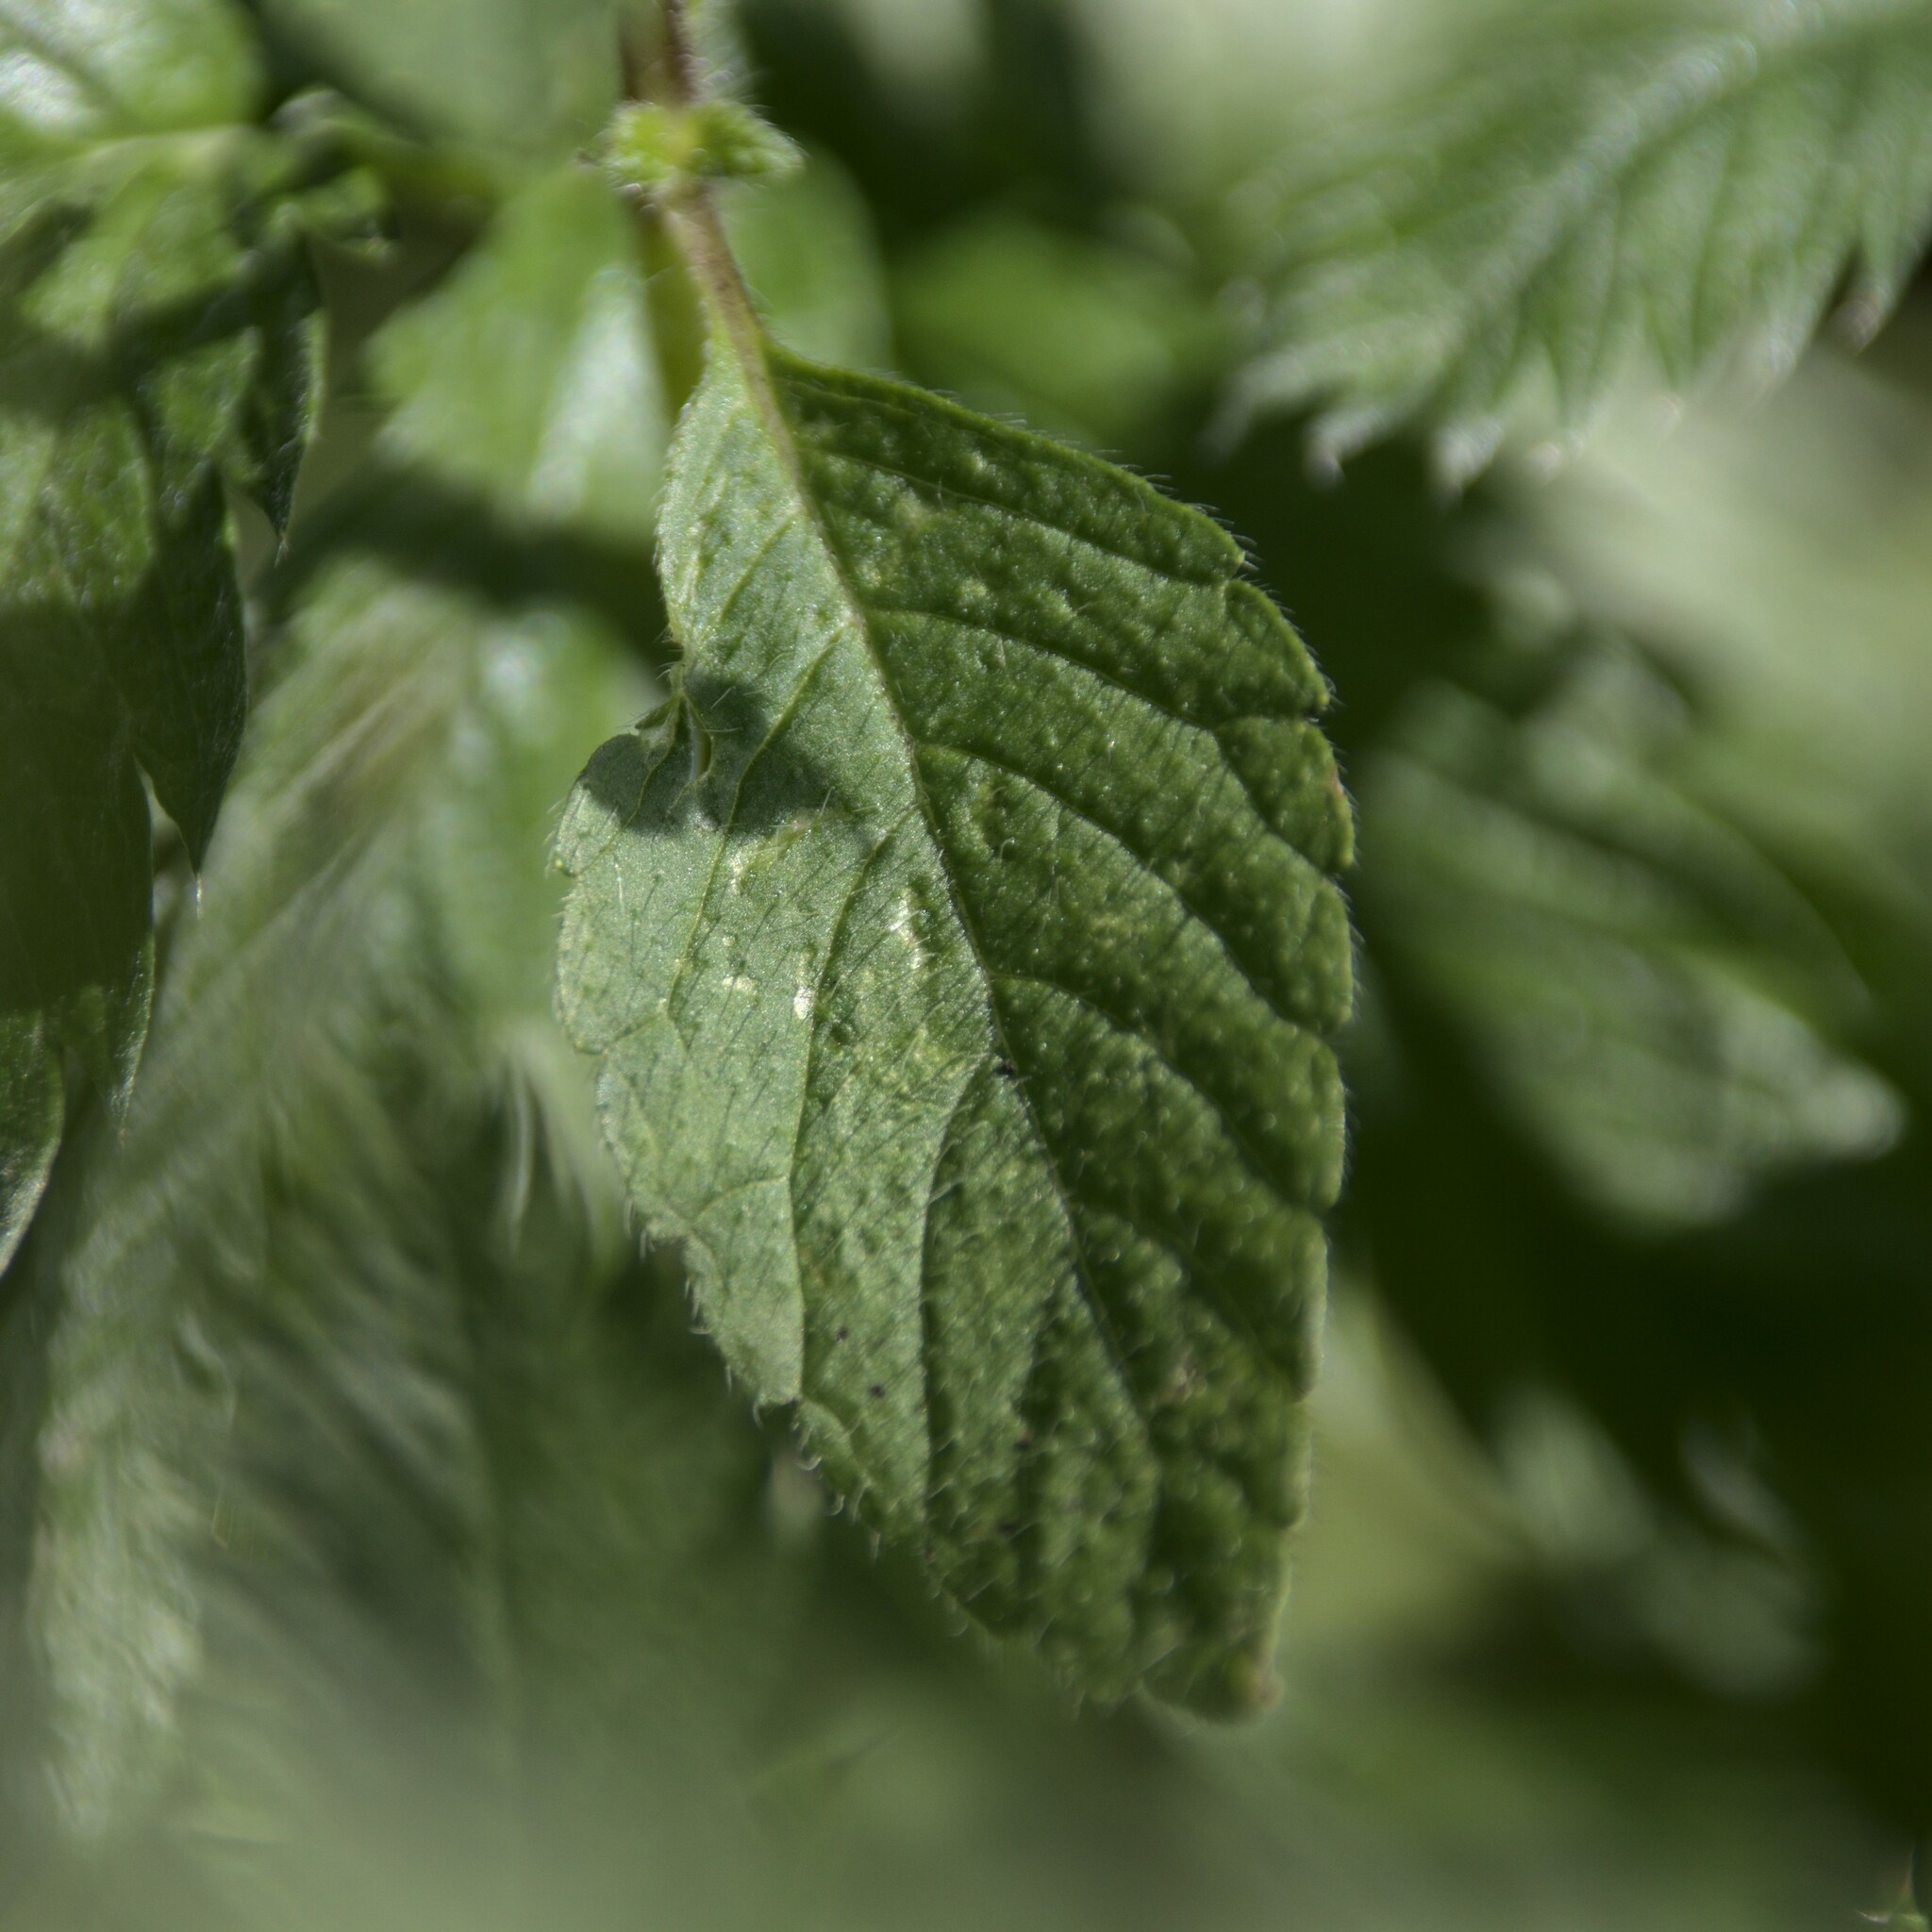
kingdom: Plantae
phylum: Tracheophyta
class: Magnoliopsida
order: Lamiales
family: Lamiaceae
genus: Galeopsis
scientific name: Galeopsis speciosa
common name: Large-flowered hemp-nettle
